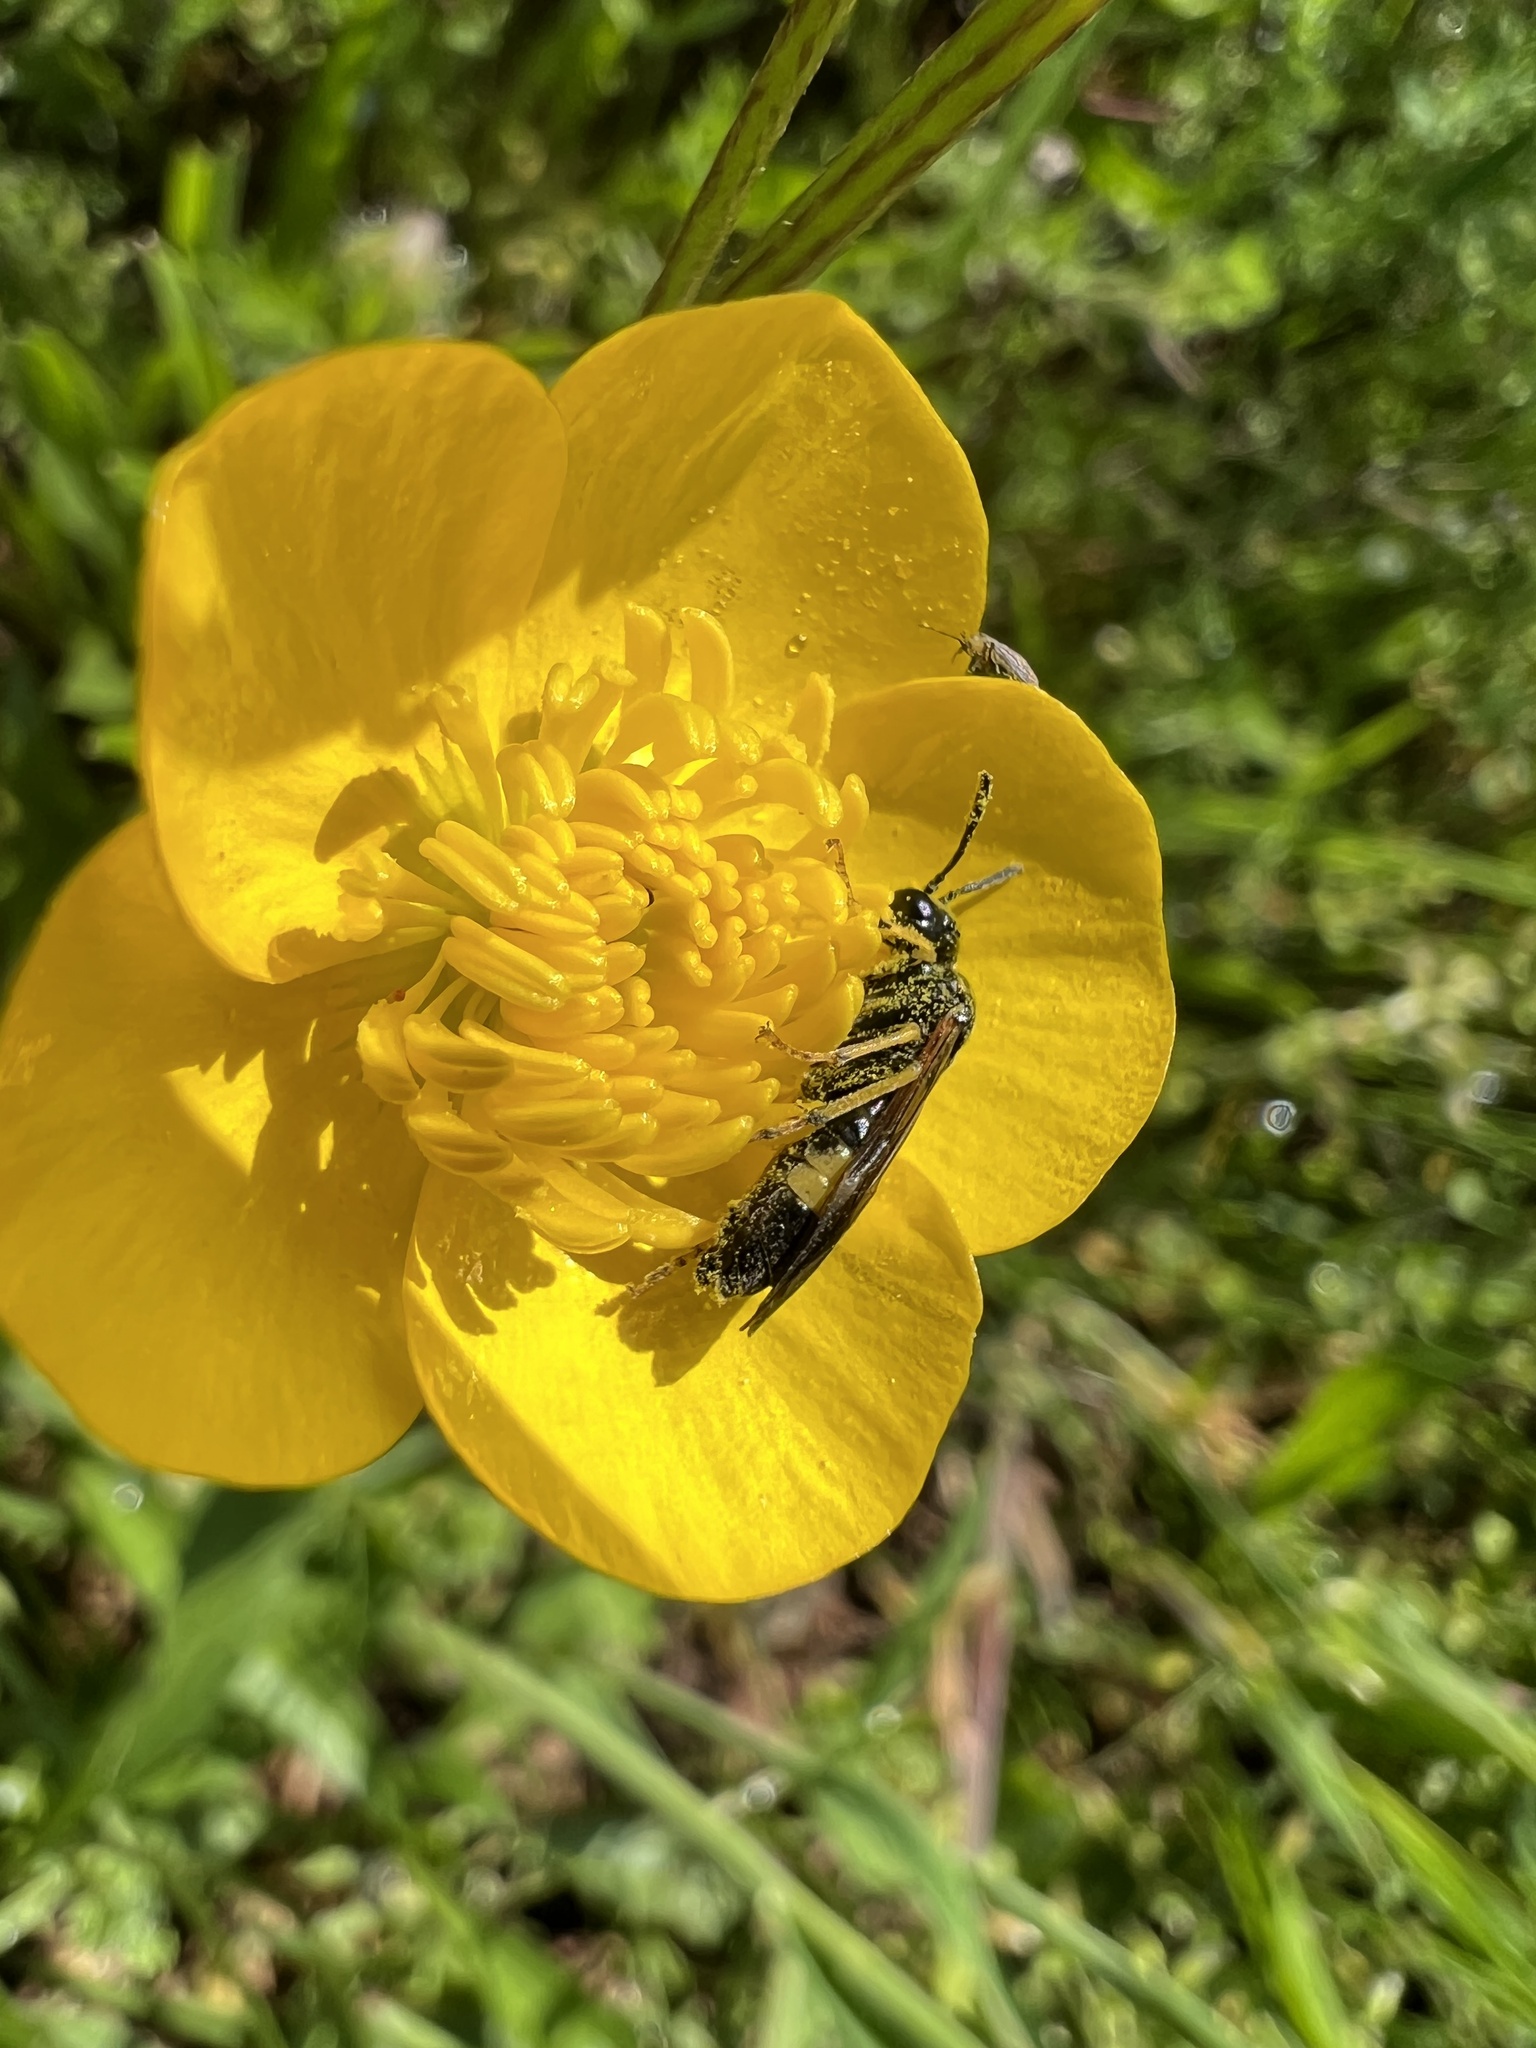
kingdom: Animalia
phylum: Arthropoda
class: Insecta
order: Hymenoptera
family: Tenthredinidae
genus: Paratenthredo
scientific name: Paratenthredo frauenfeldii
